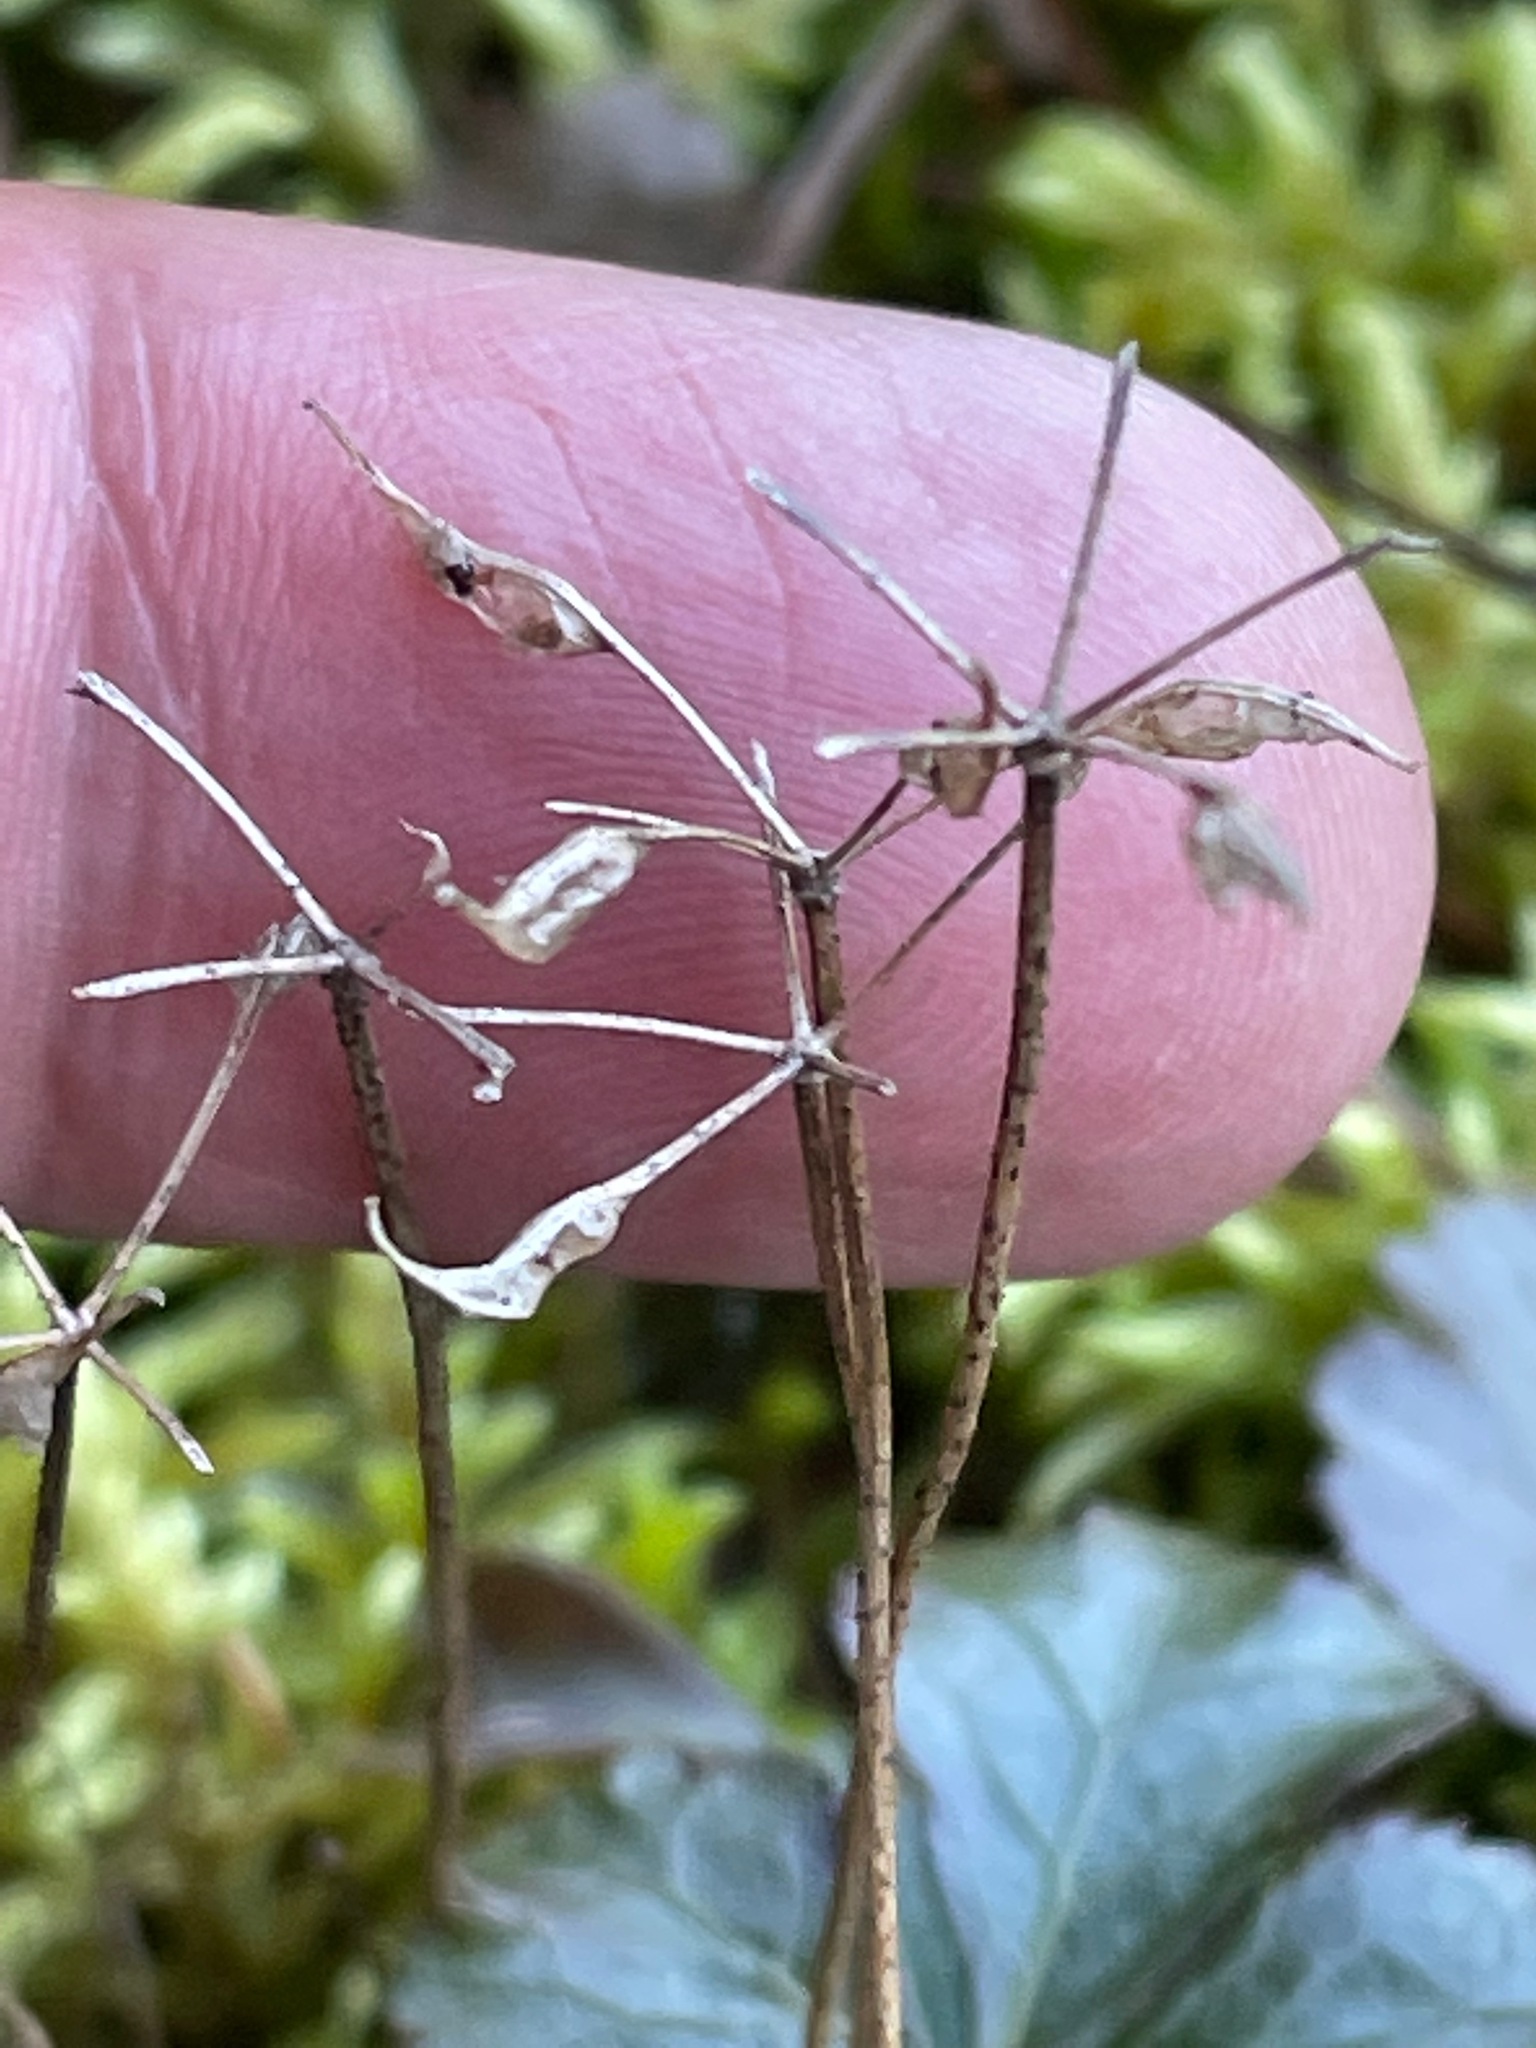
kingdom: Plantae
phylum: Tracheophyta
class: Magnoliopsida
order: Ranunculales
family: Ranunculaceae
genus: Coptis
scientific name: Coptis trifolia
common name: Canker-root
